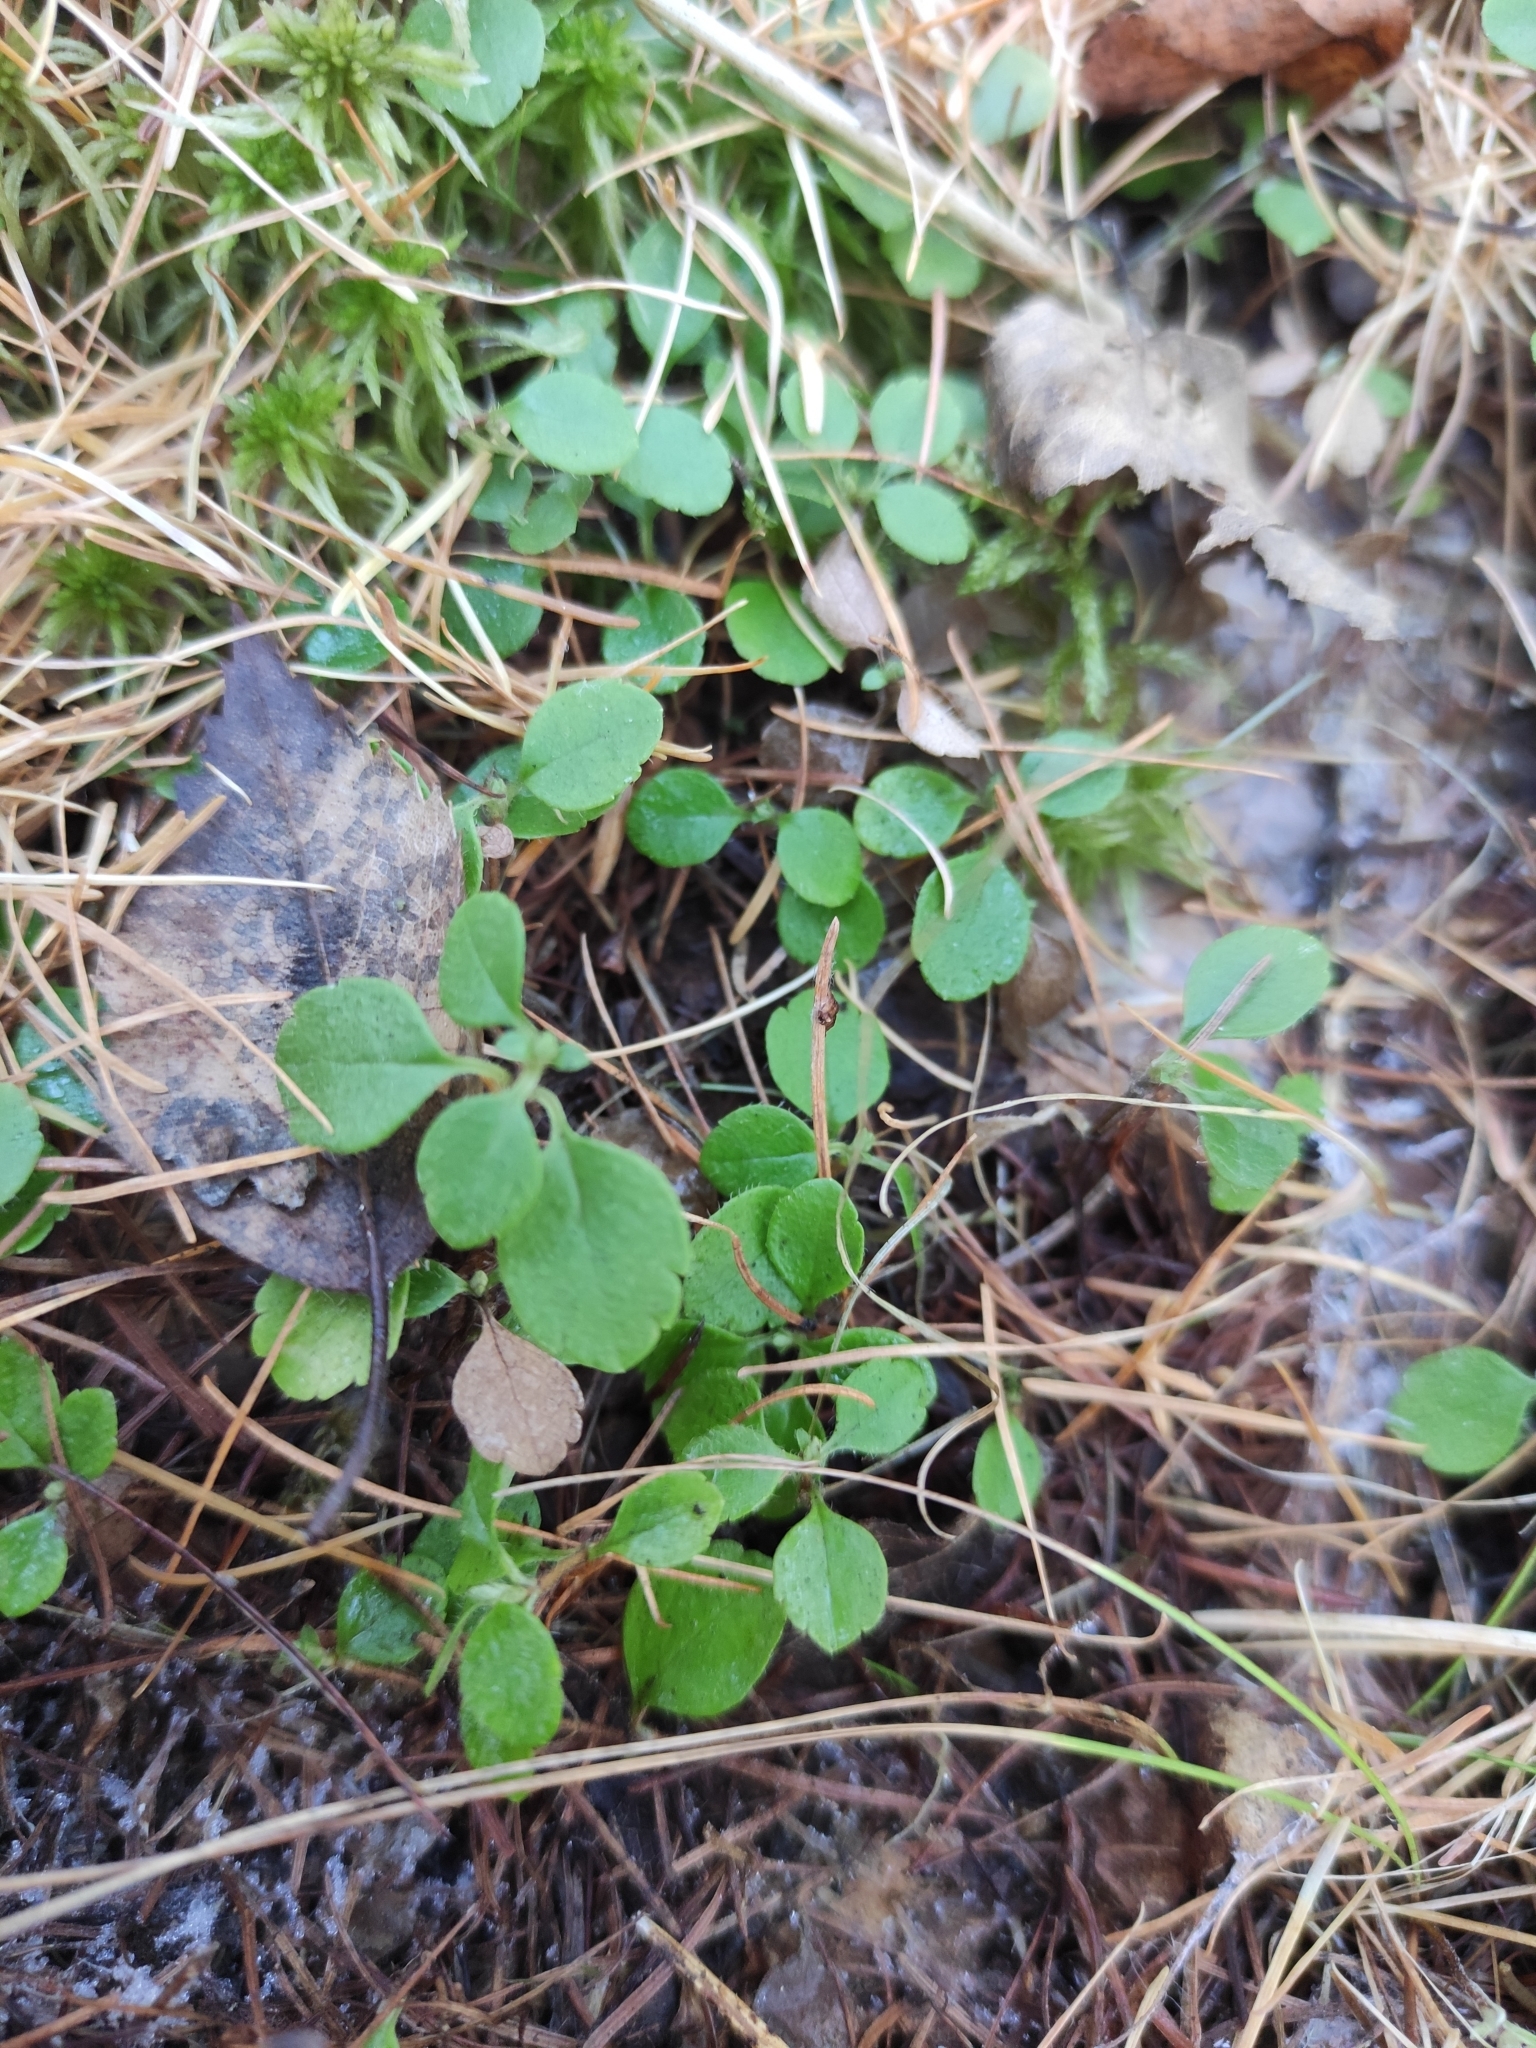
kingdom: Plantae
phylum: Tracheophyta
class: Magnoliopsida
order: Dipsacales
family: Caprifoliaceae
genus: Linnaea
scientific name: Linnaea borealis
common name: Twinflower
